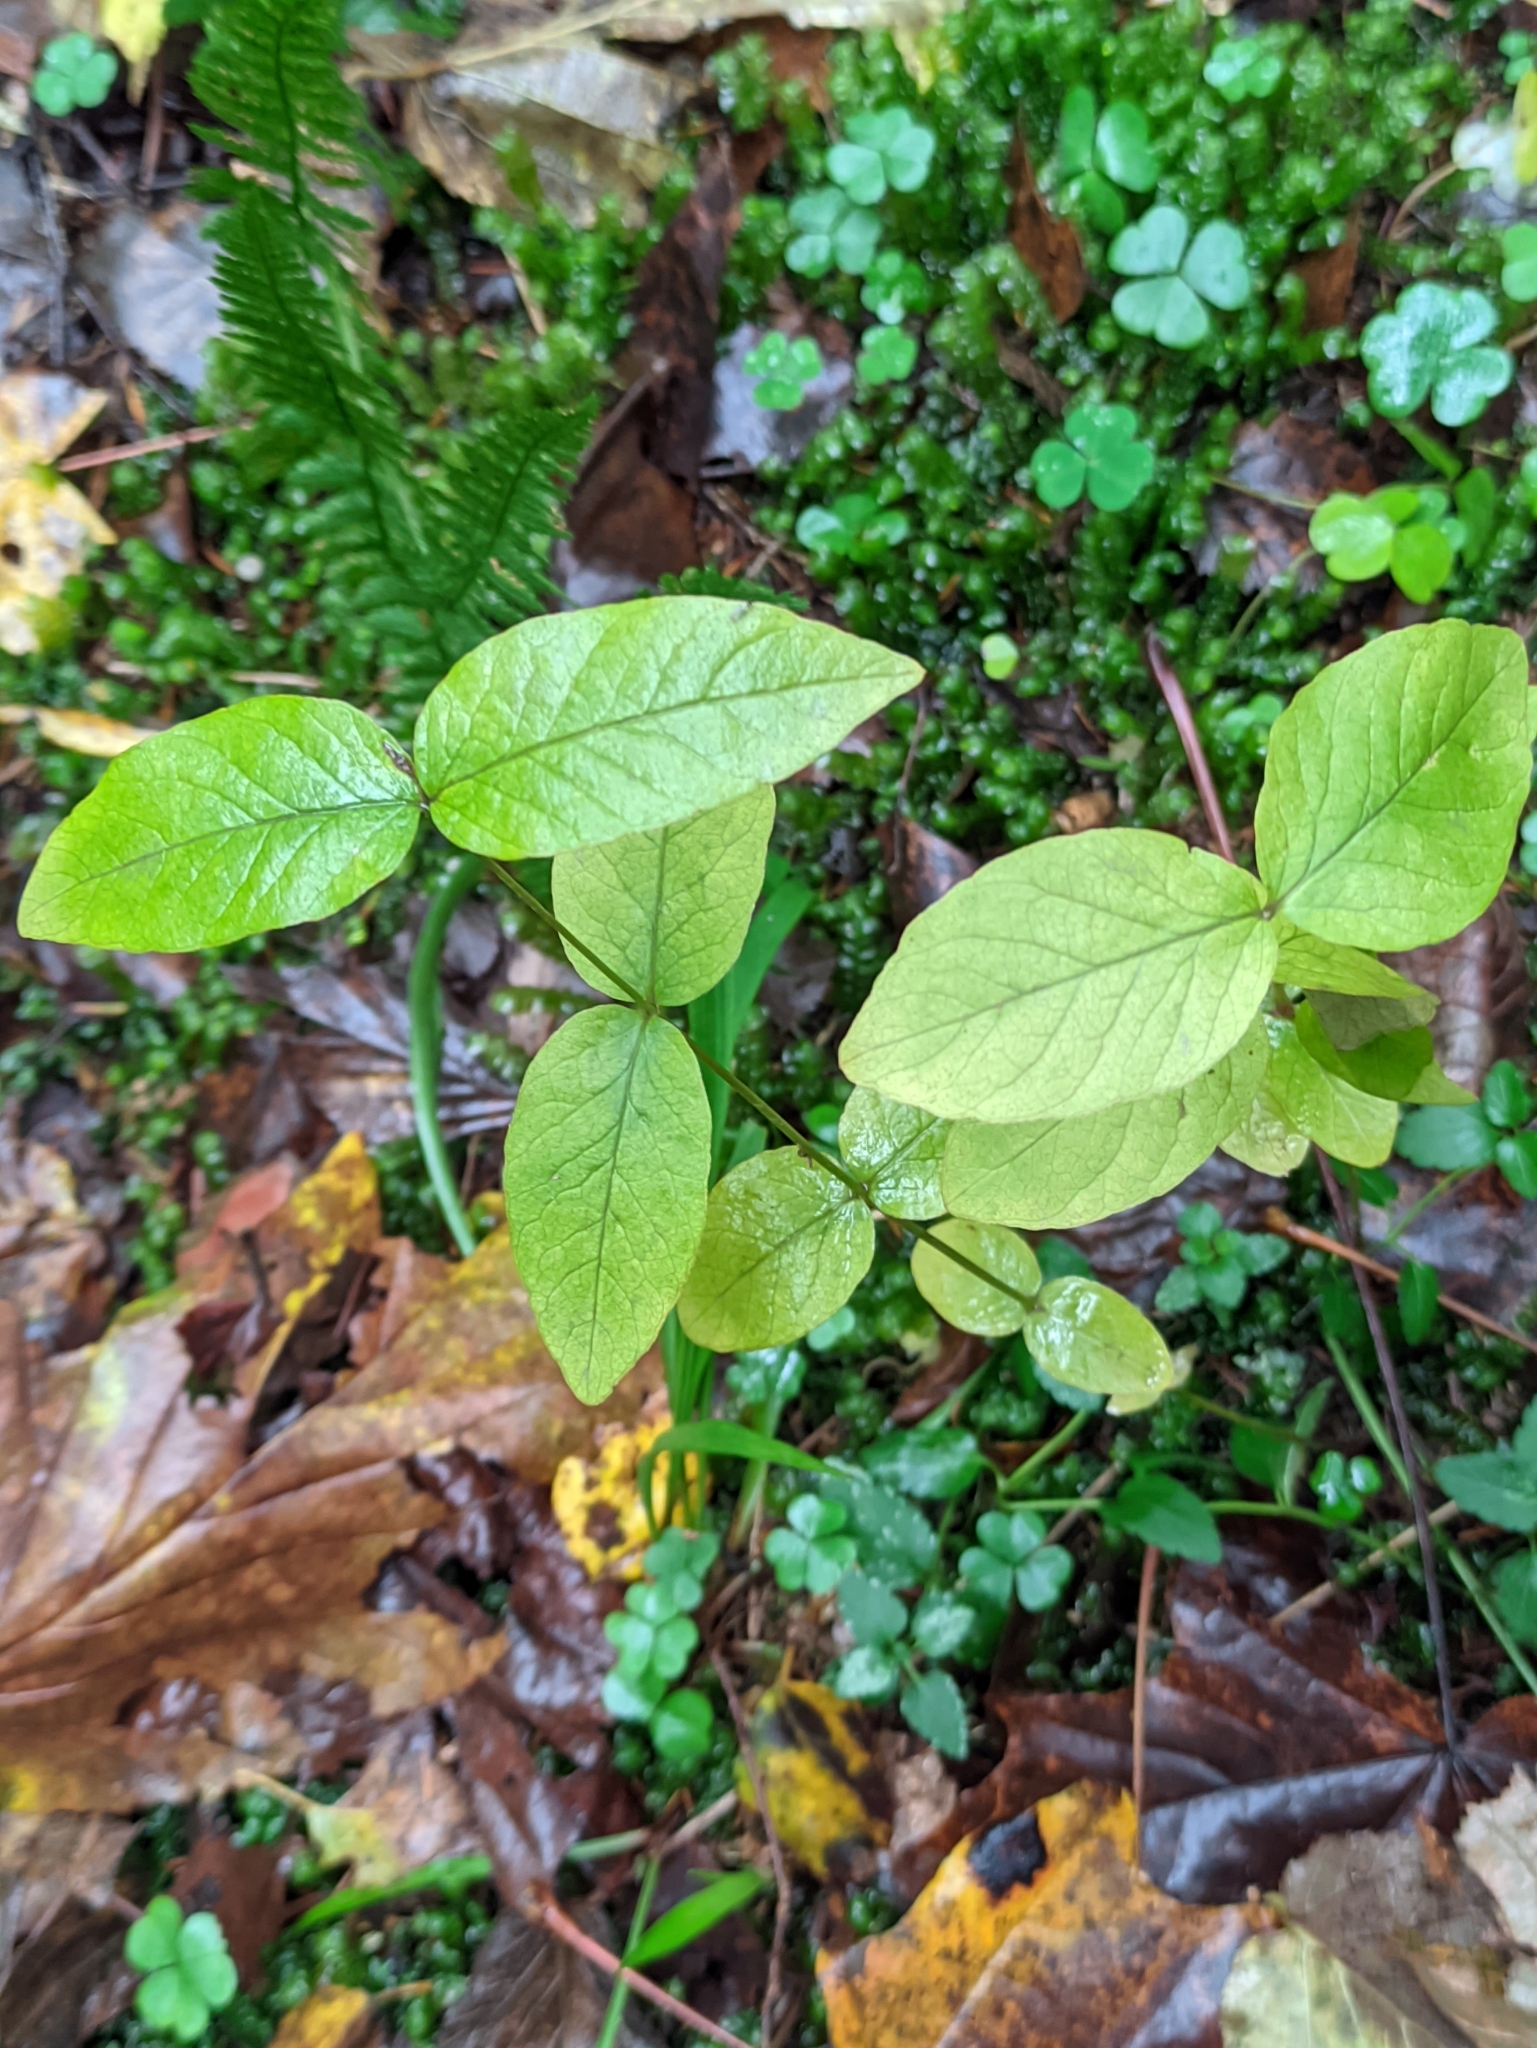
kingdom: Plantae
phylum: Tracheophyta
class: Magnoliopsida
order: Ericales
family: Primulaceae
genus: Lysimachia
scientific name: Lysimachia vulgaris
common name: Yellow loosestrife
